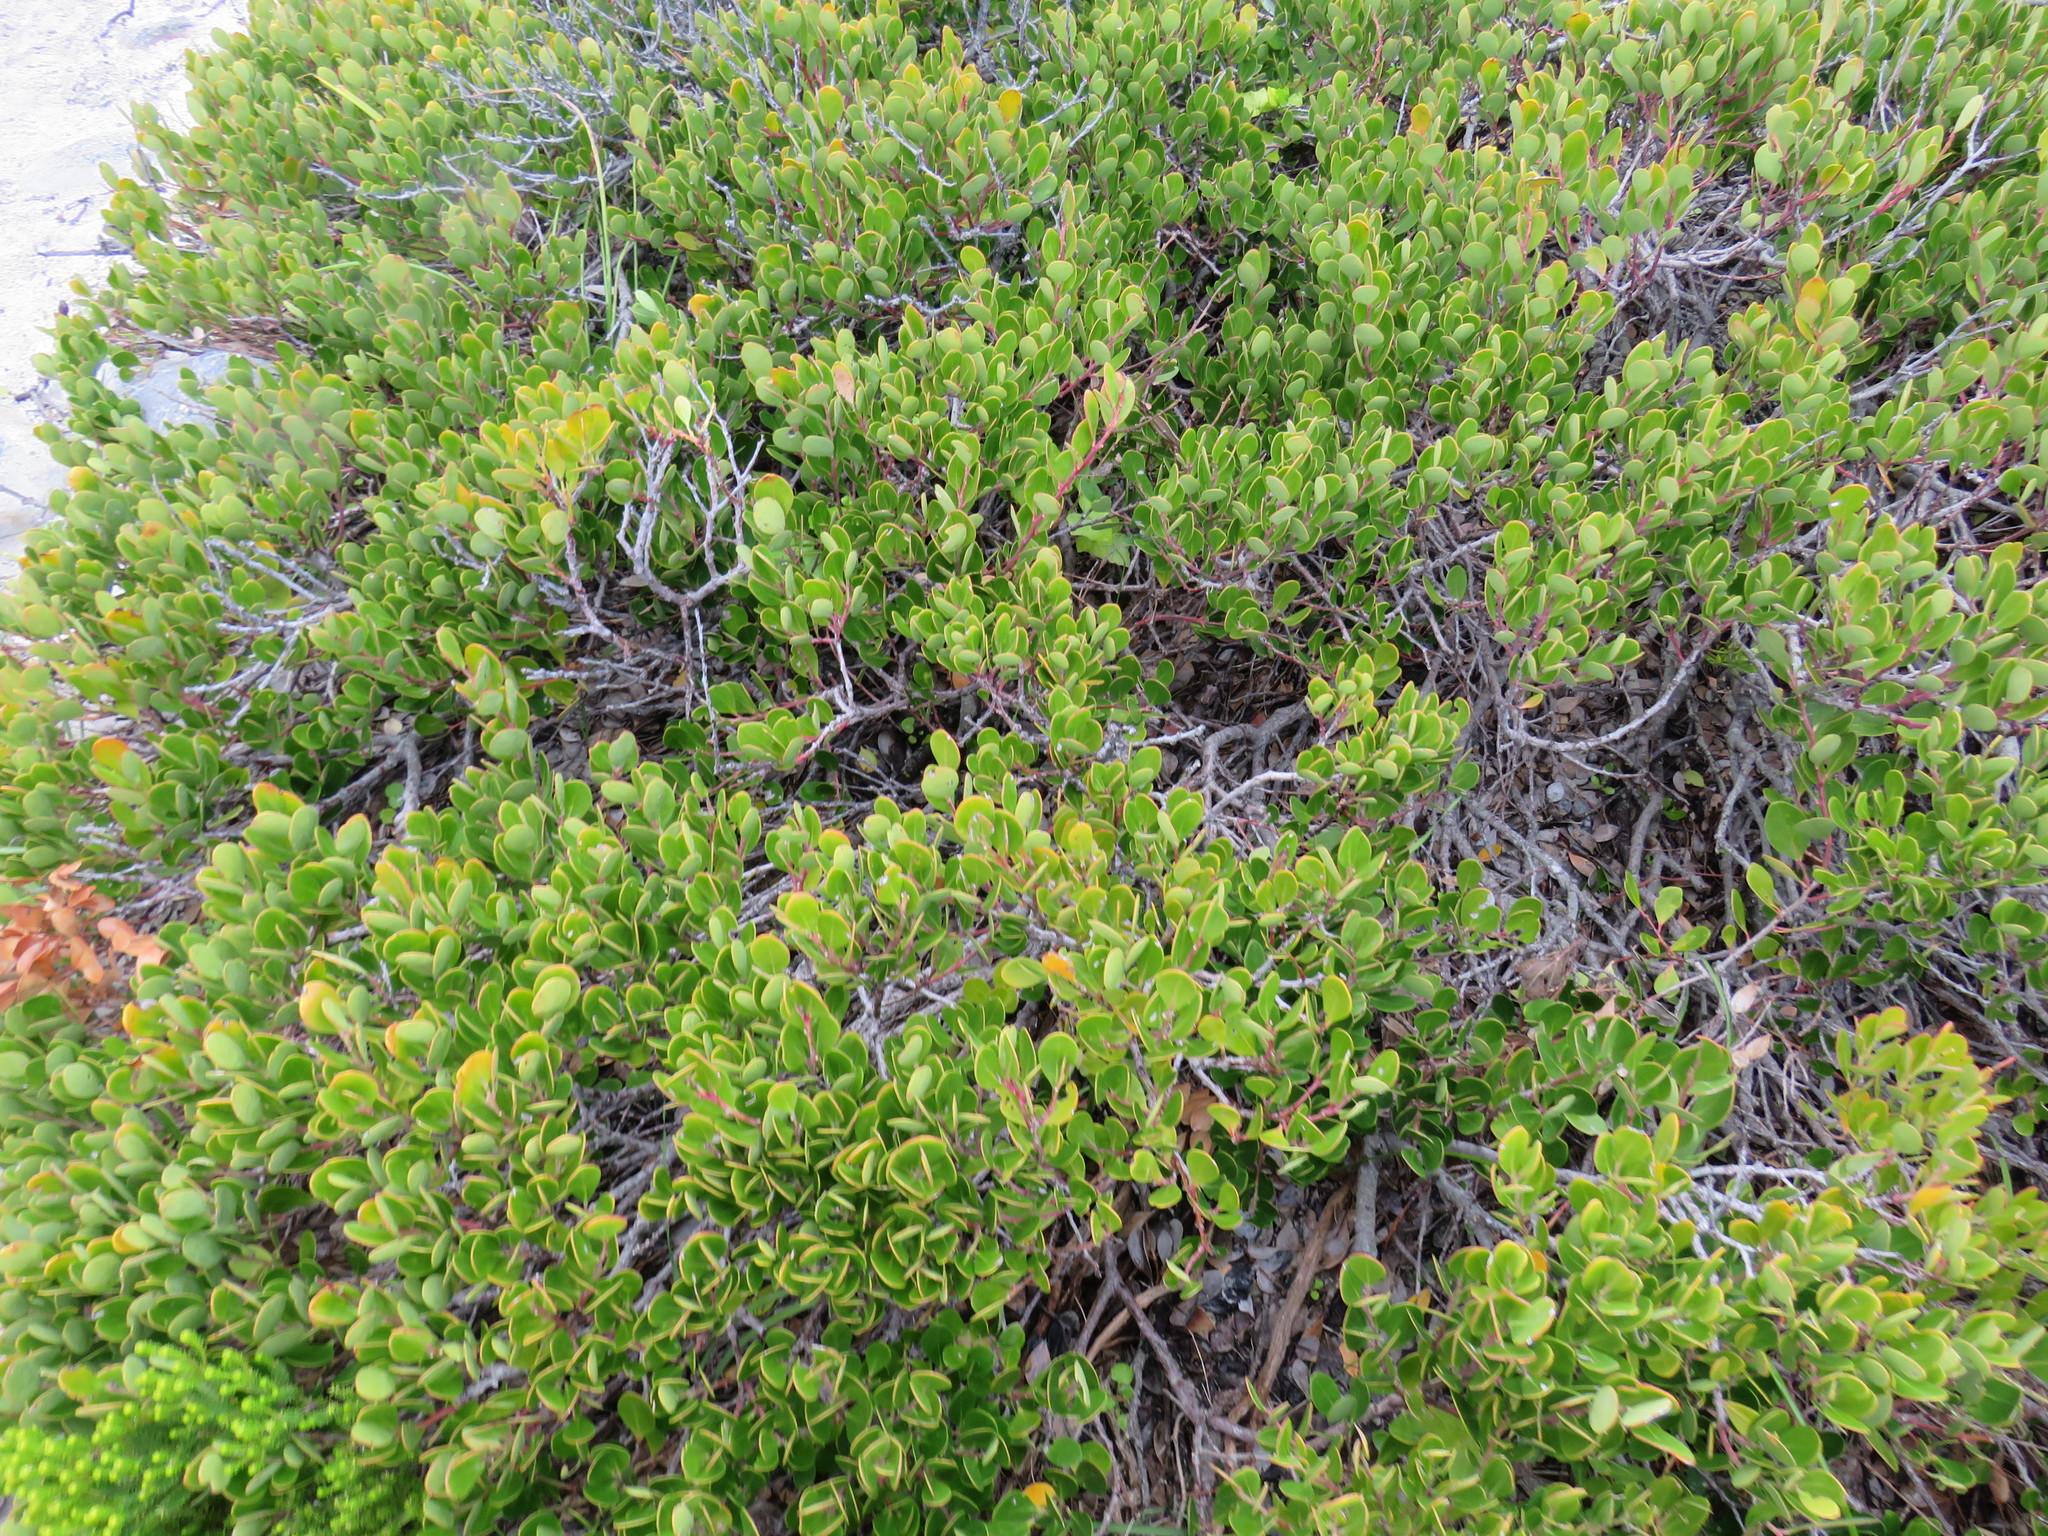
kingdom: Plantae
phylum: Tracheophyta
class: Magnoliopsida
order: Ericales
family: Ebenaceae
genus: Euclea
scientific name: Euclea racemosa
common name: Dune guarri
